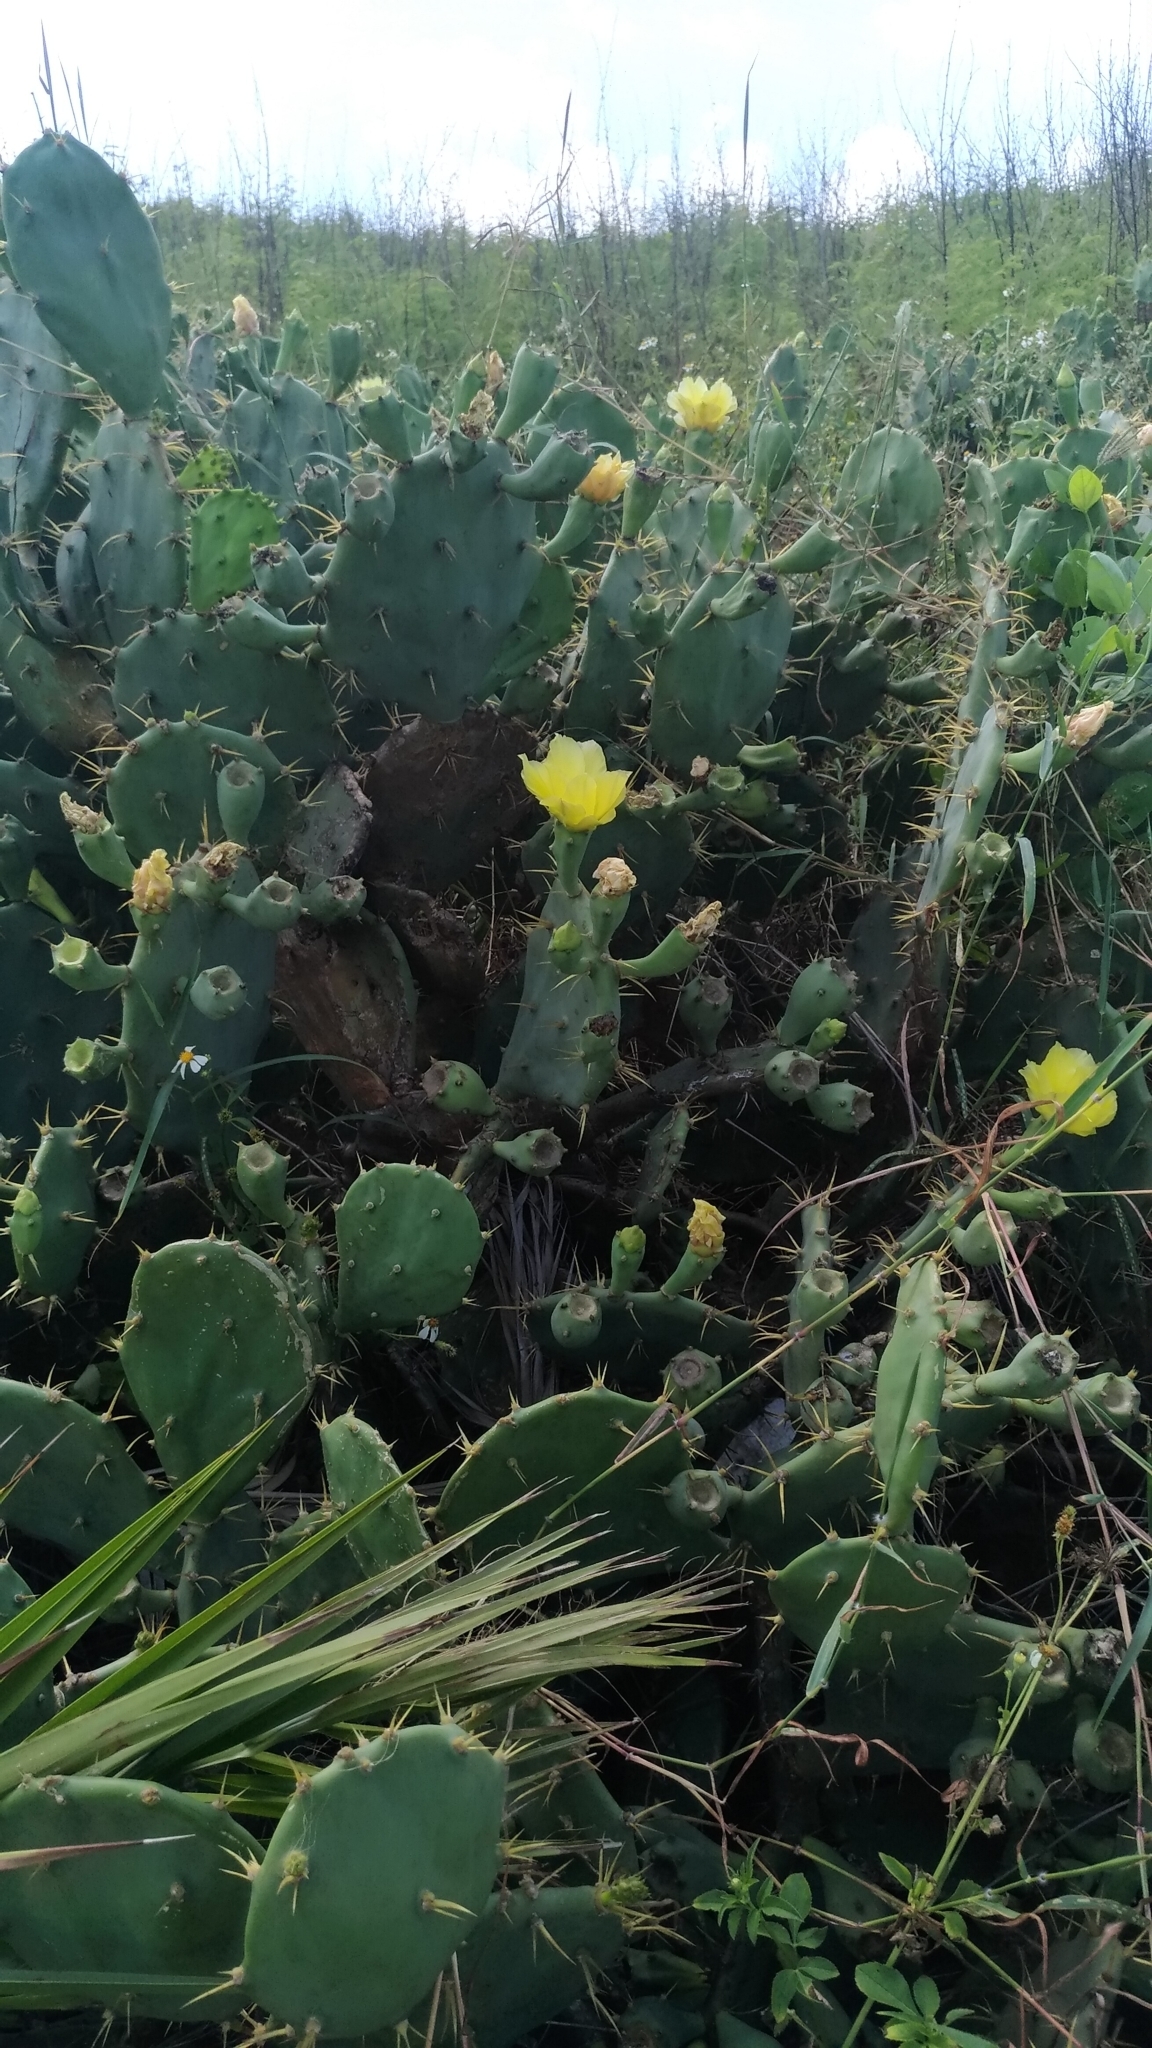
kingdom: Plantae
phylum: Tracheophyta
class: Magnoliopsida
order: Caryophyllales
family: Cactaceae
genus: Opuntia
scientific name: Opuntia dillenii
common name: Sour prickle
